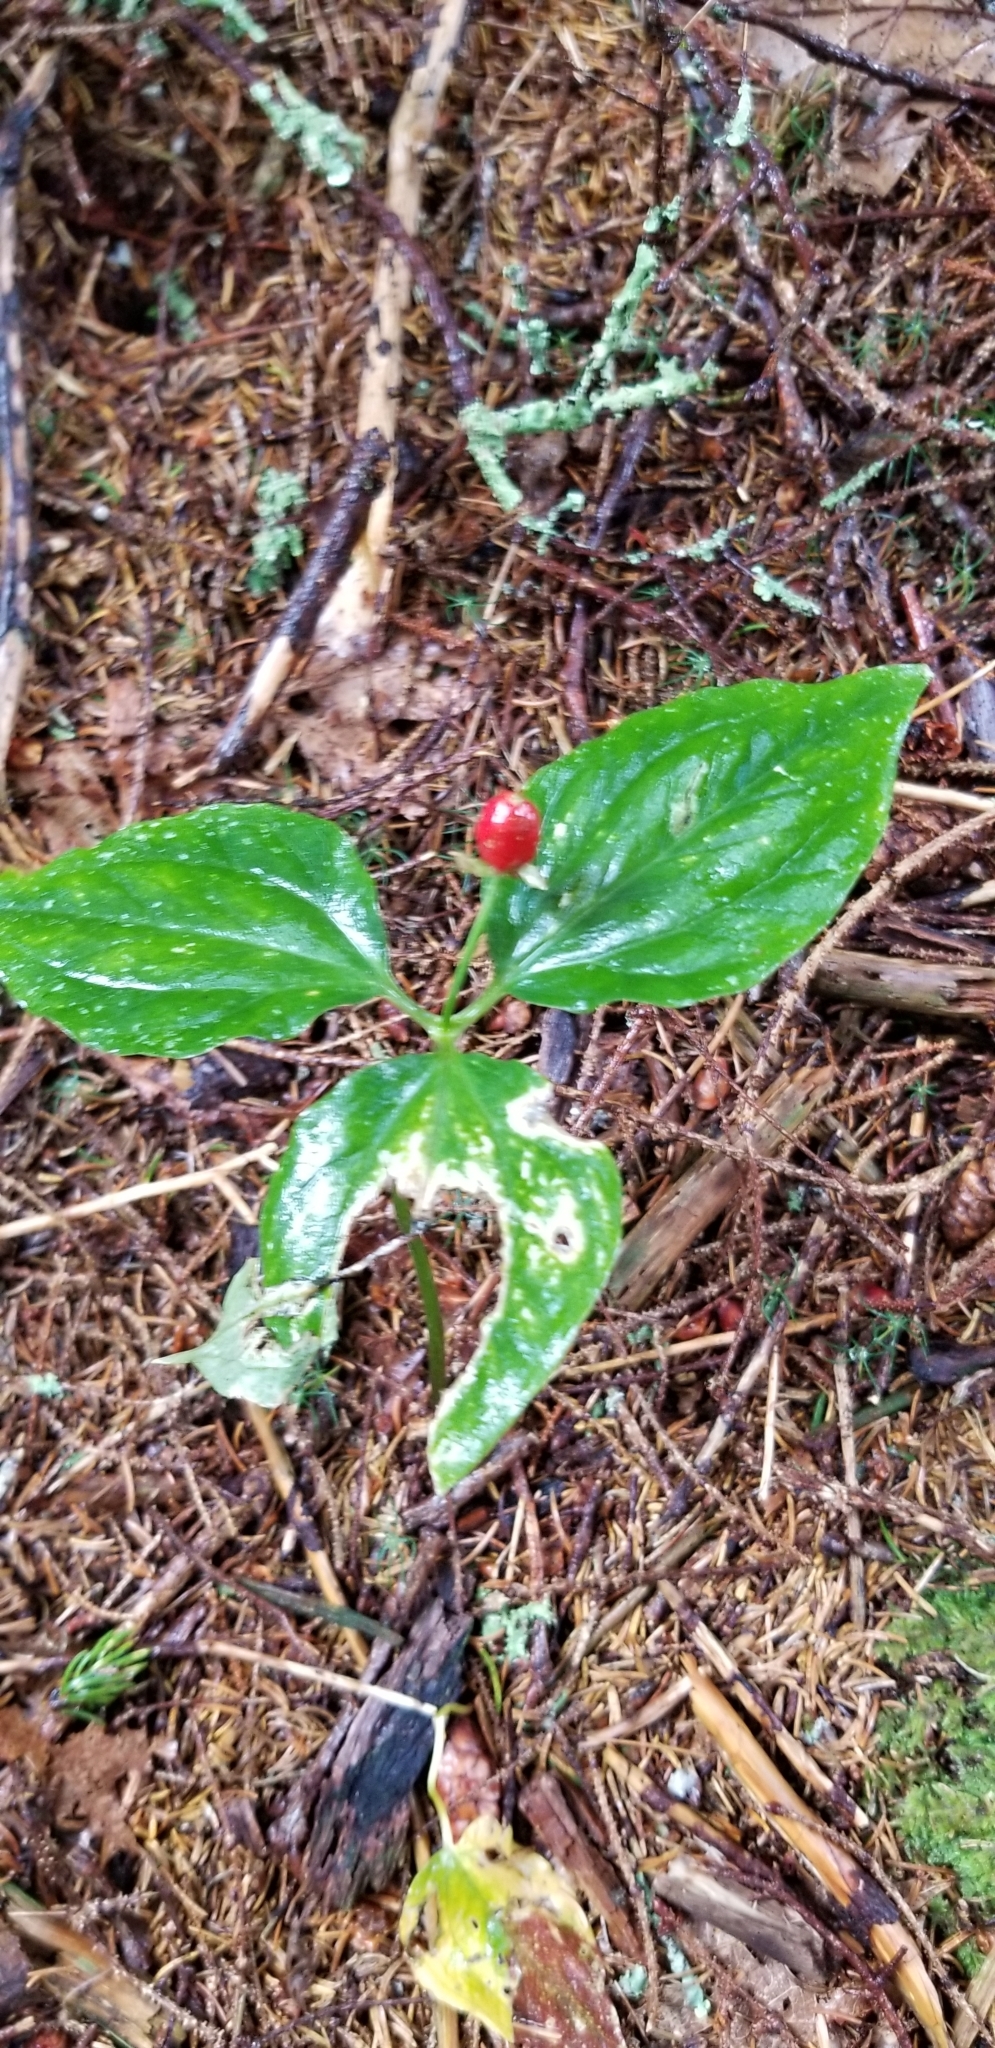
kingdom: Plantae
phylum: Tracheophyta
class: Liliopsida
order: Liliales
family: Melanthiaceae
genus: Trillium
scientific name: Trillium undulatum
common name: Paint trillium
